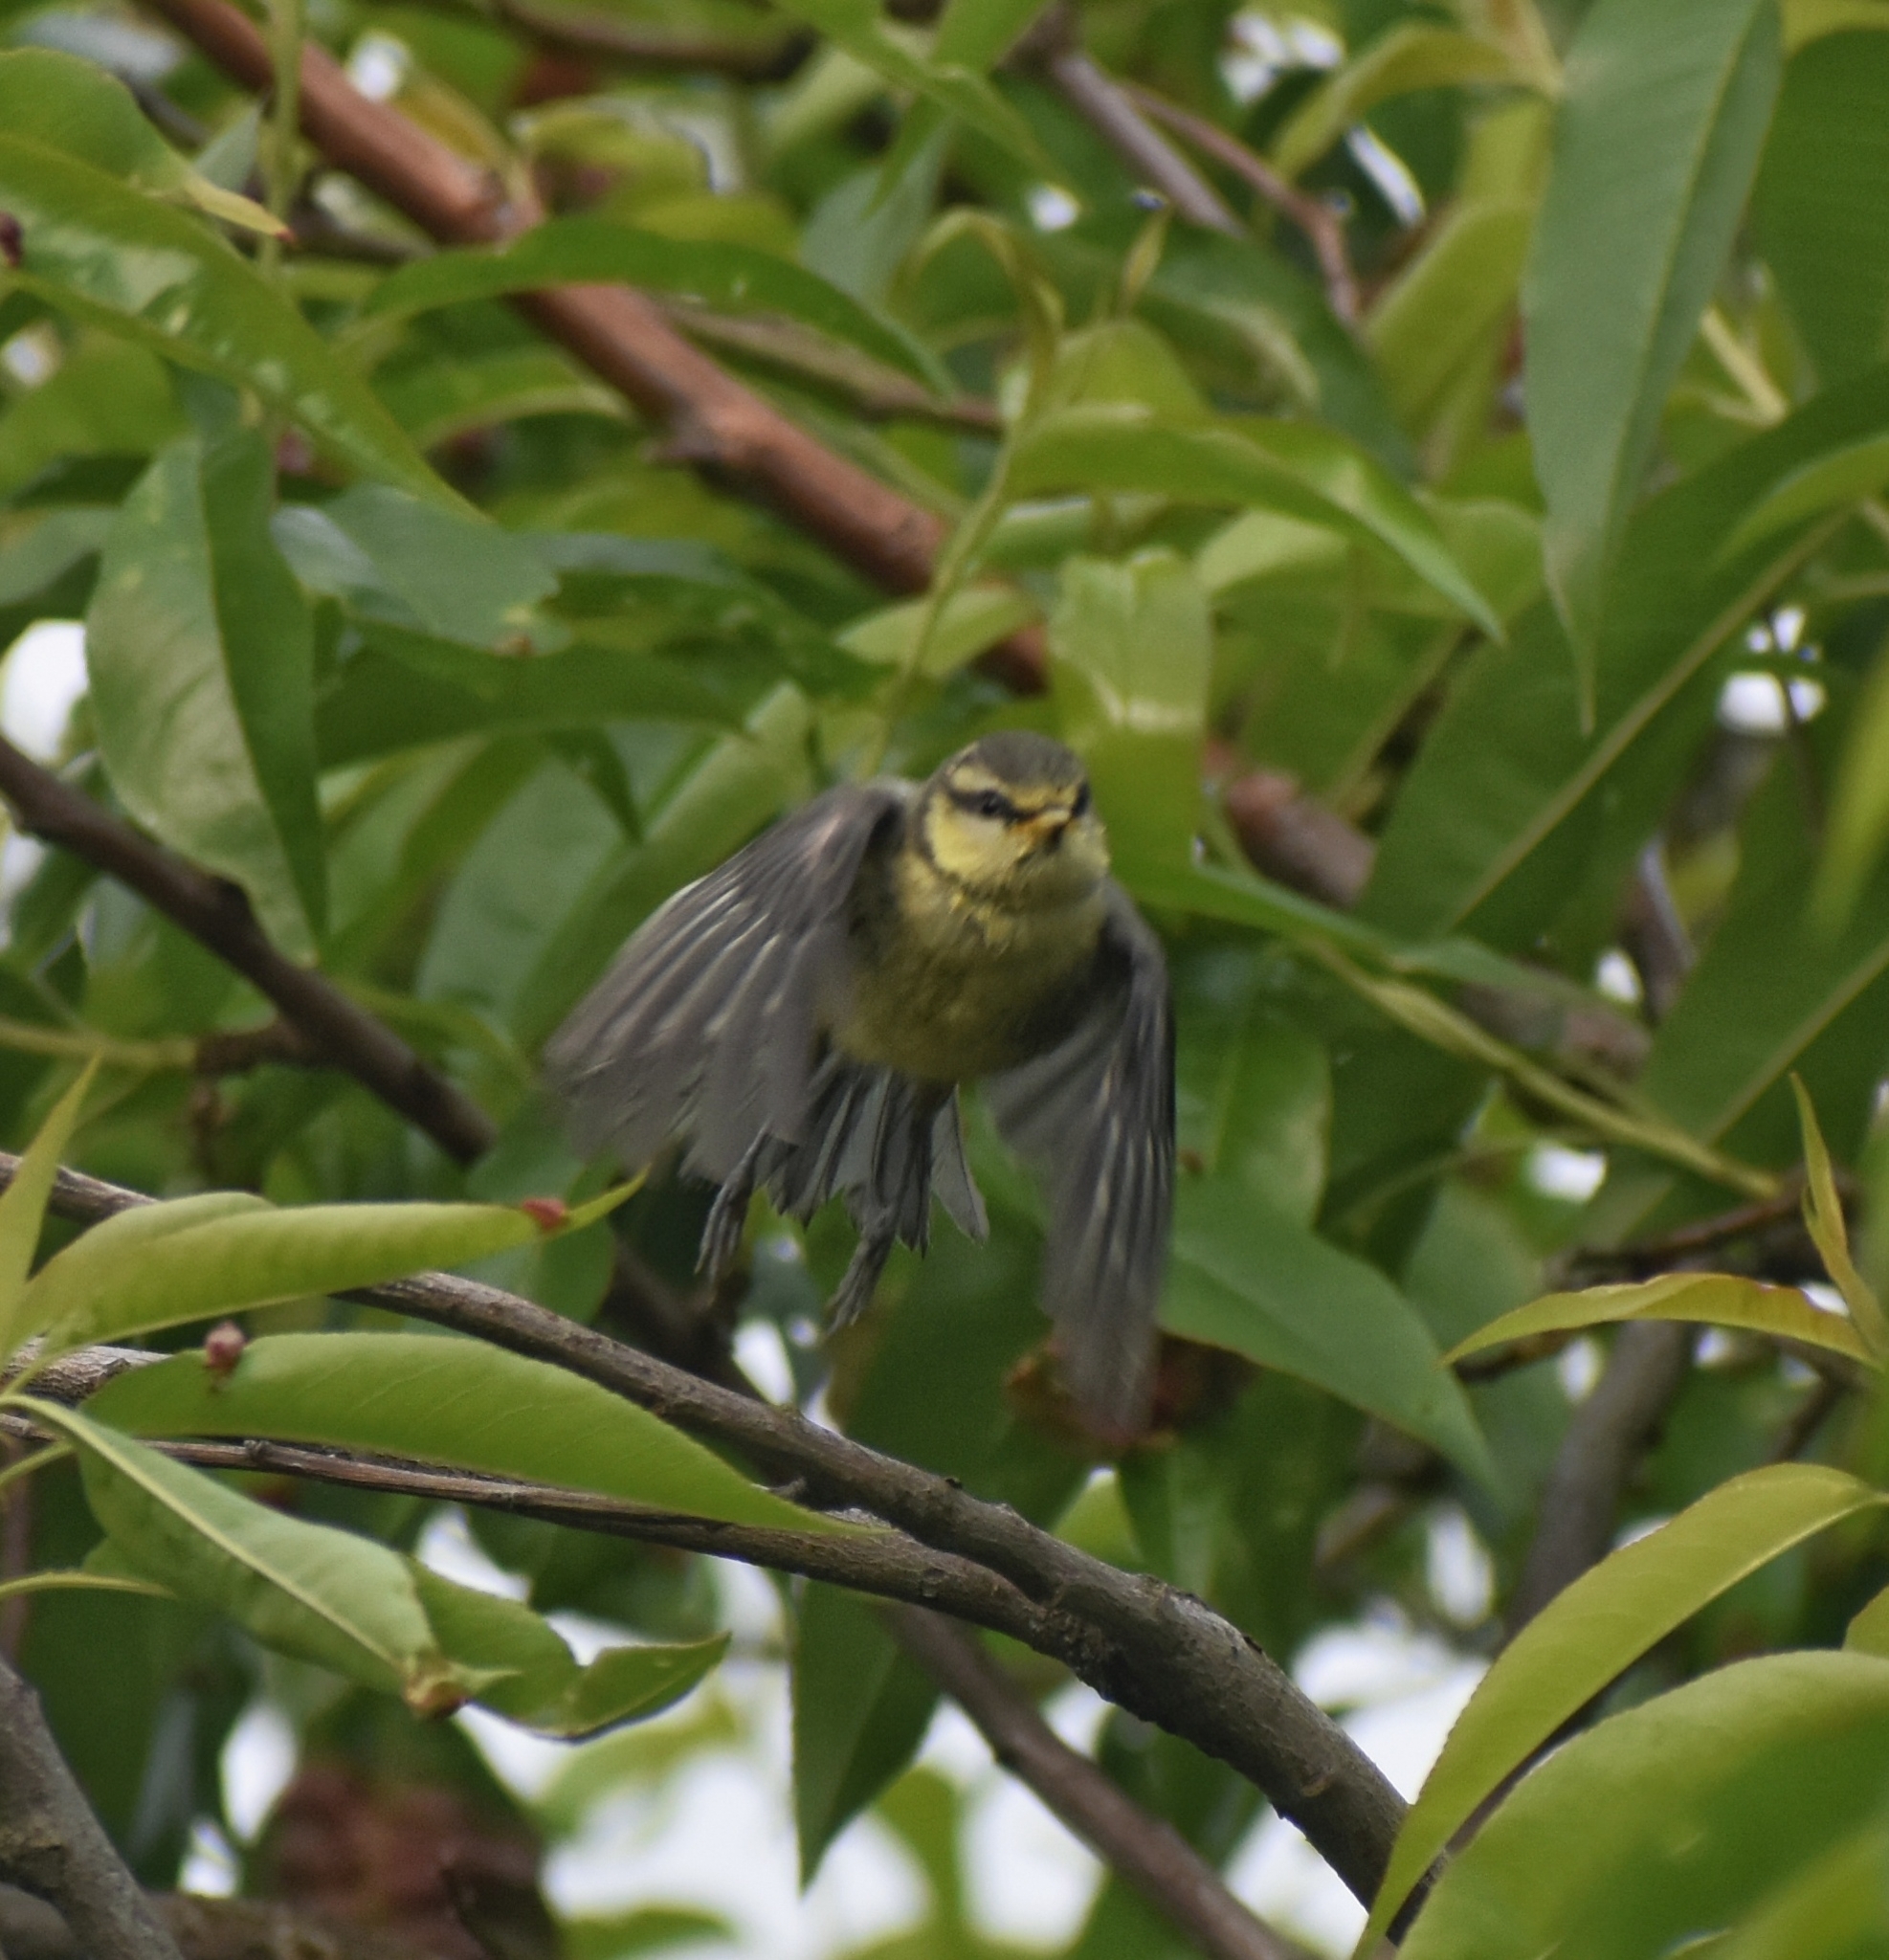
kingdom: Animalia
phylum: Chordata
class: Aves
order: Passeriformes
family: Paridae
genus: Cyanistes
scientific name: Cyanistes caeruleus
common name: Eurasian blue tit
